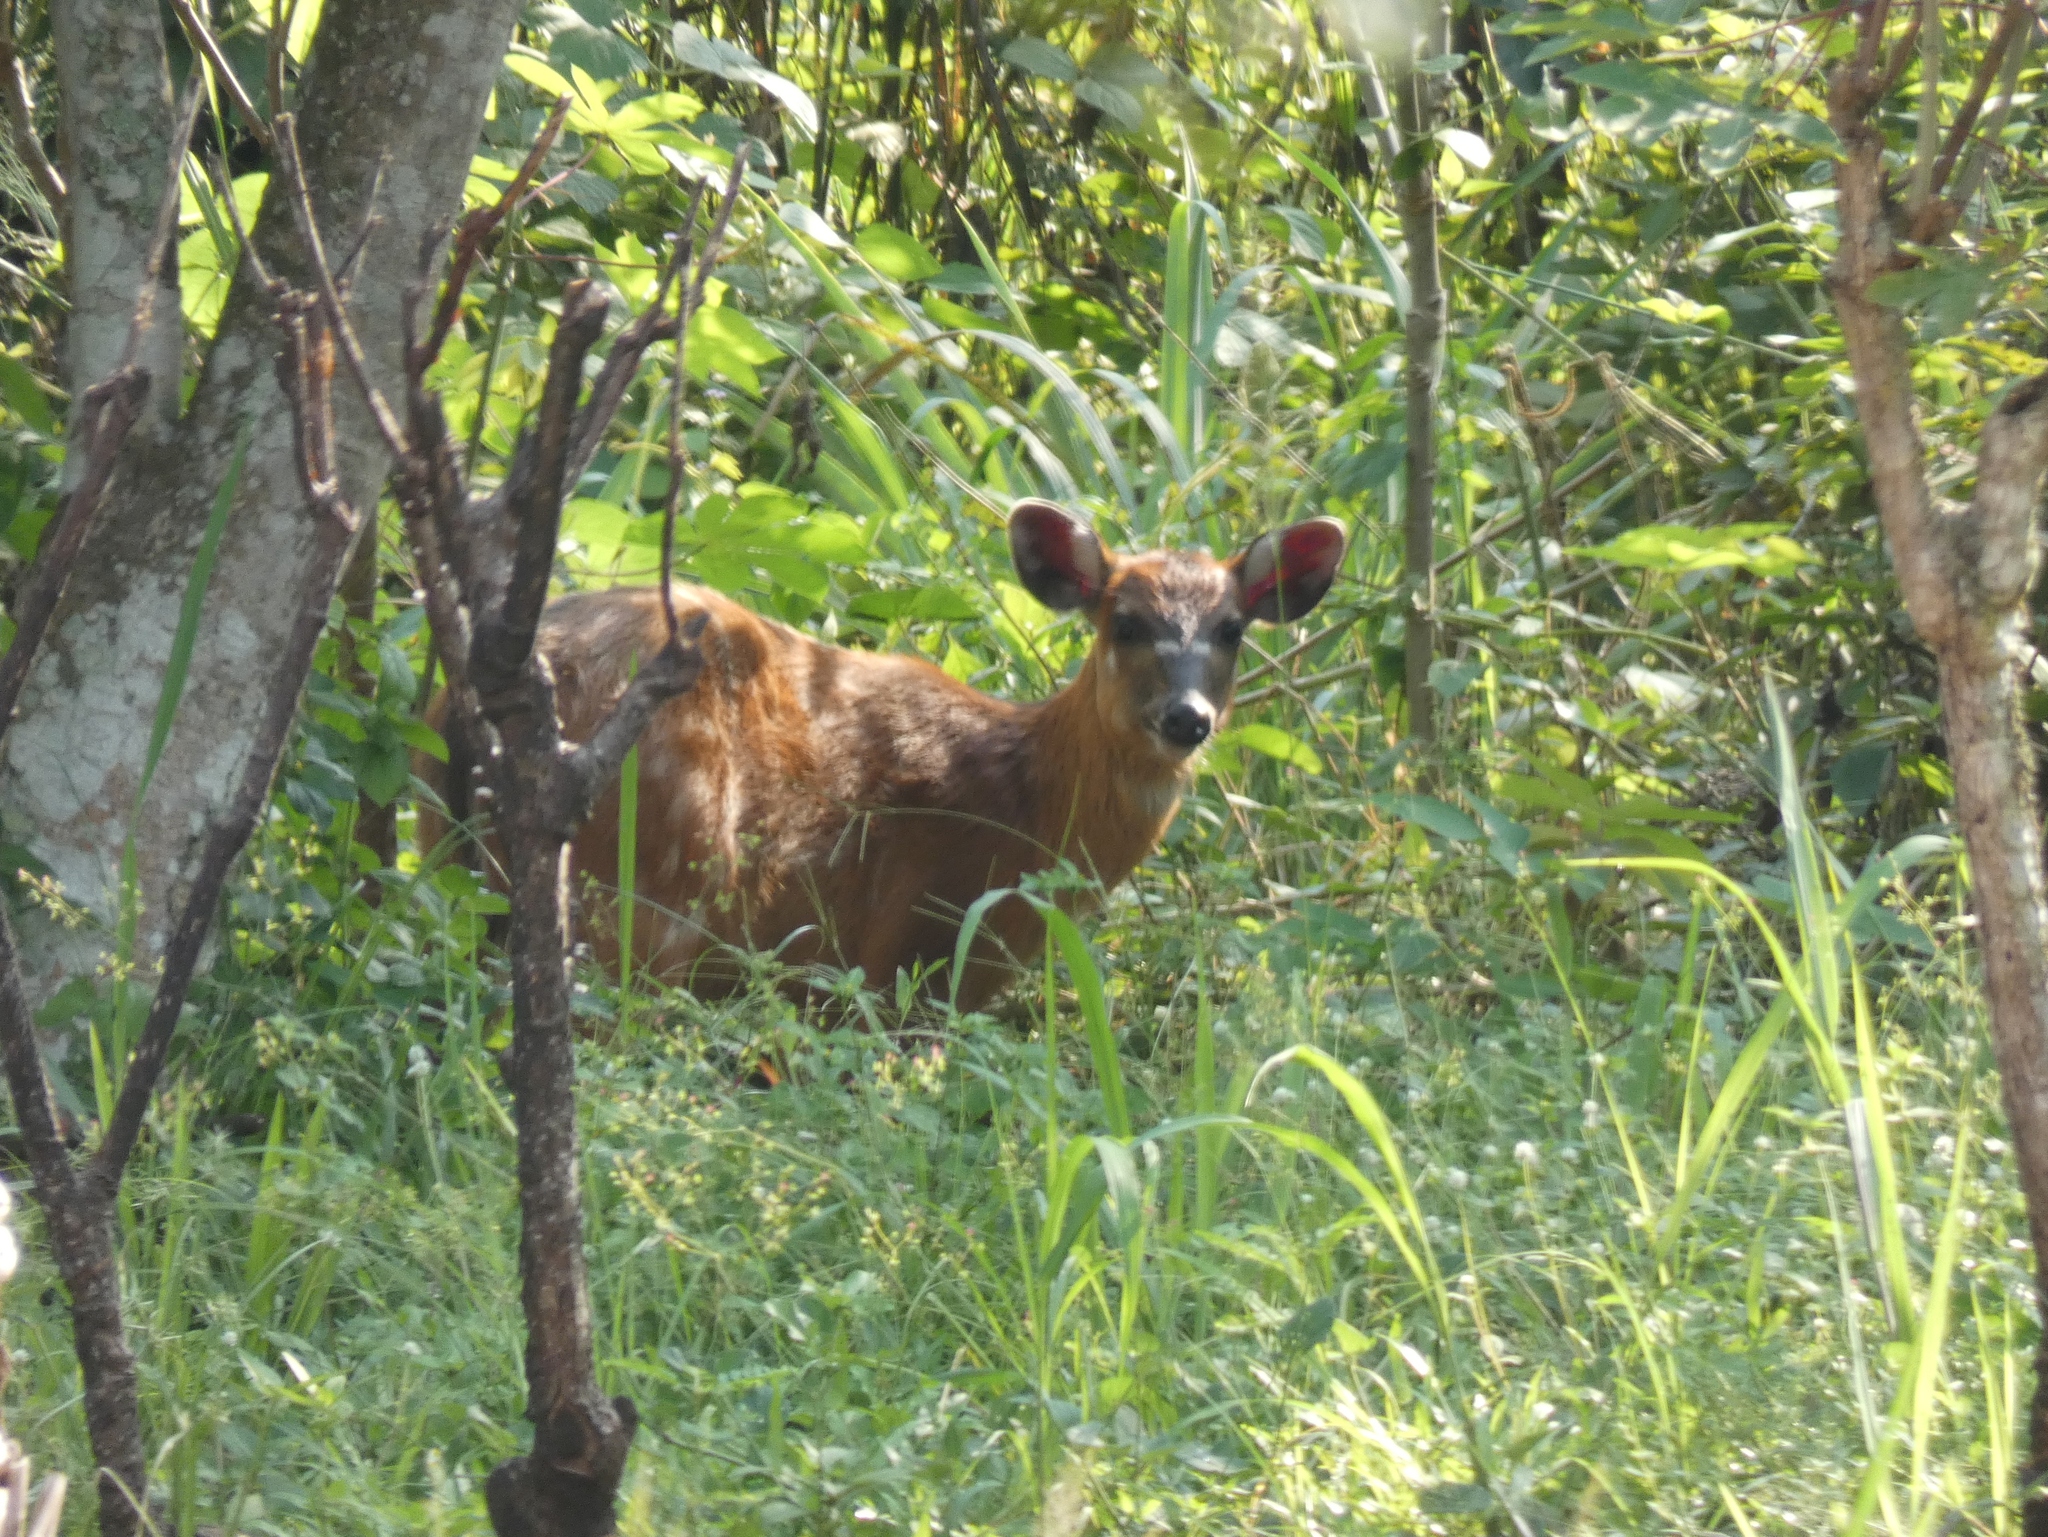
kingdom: Animalia
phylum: Chordata
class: Mammalia
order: Artiodactyla
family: Bovidae
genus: Tragelaphus
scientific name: Tragelaphus spekii
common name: Sitatunga
